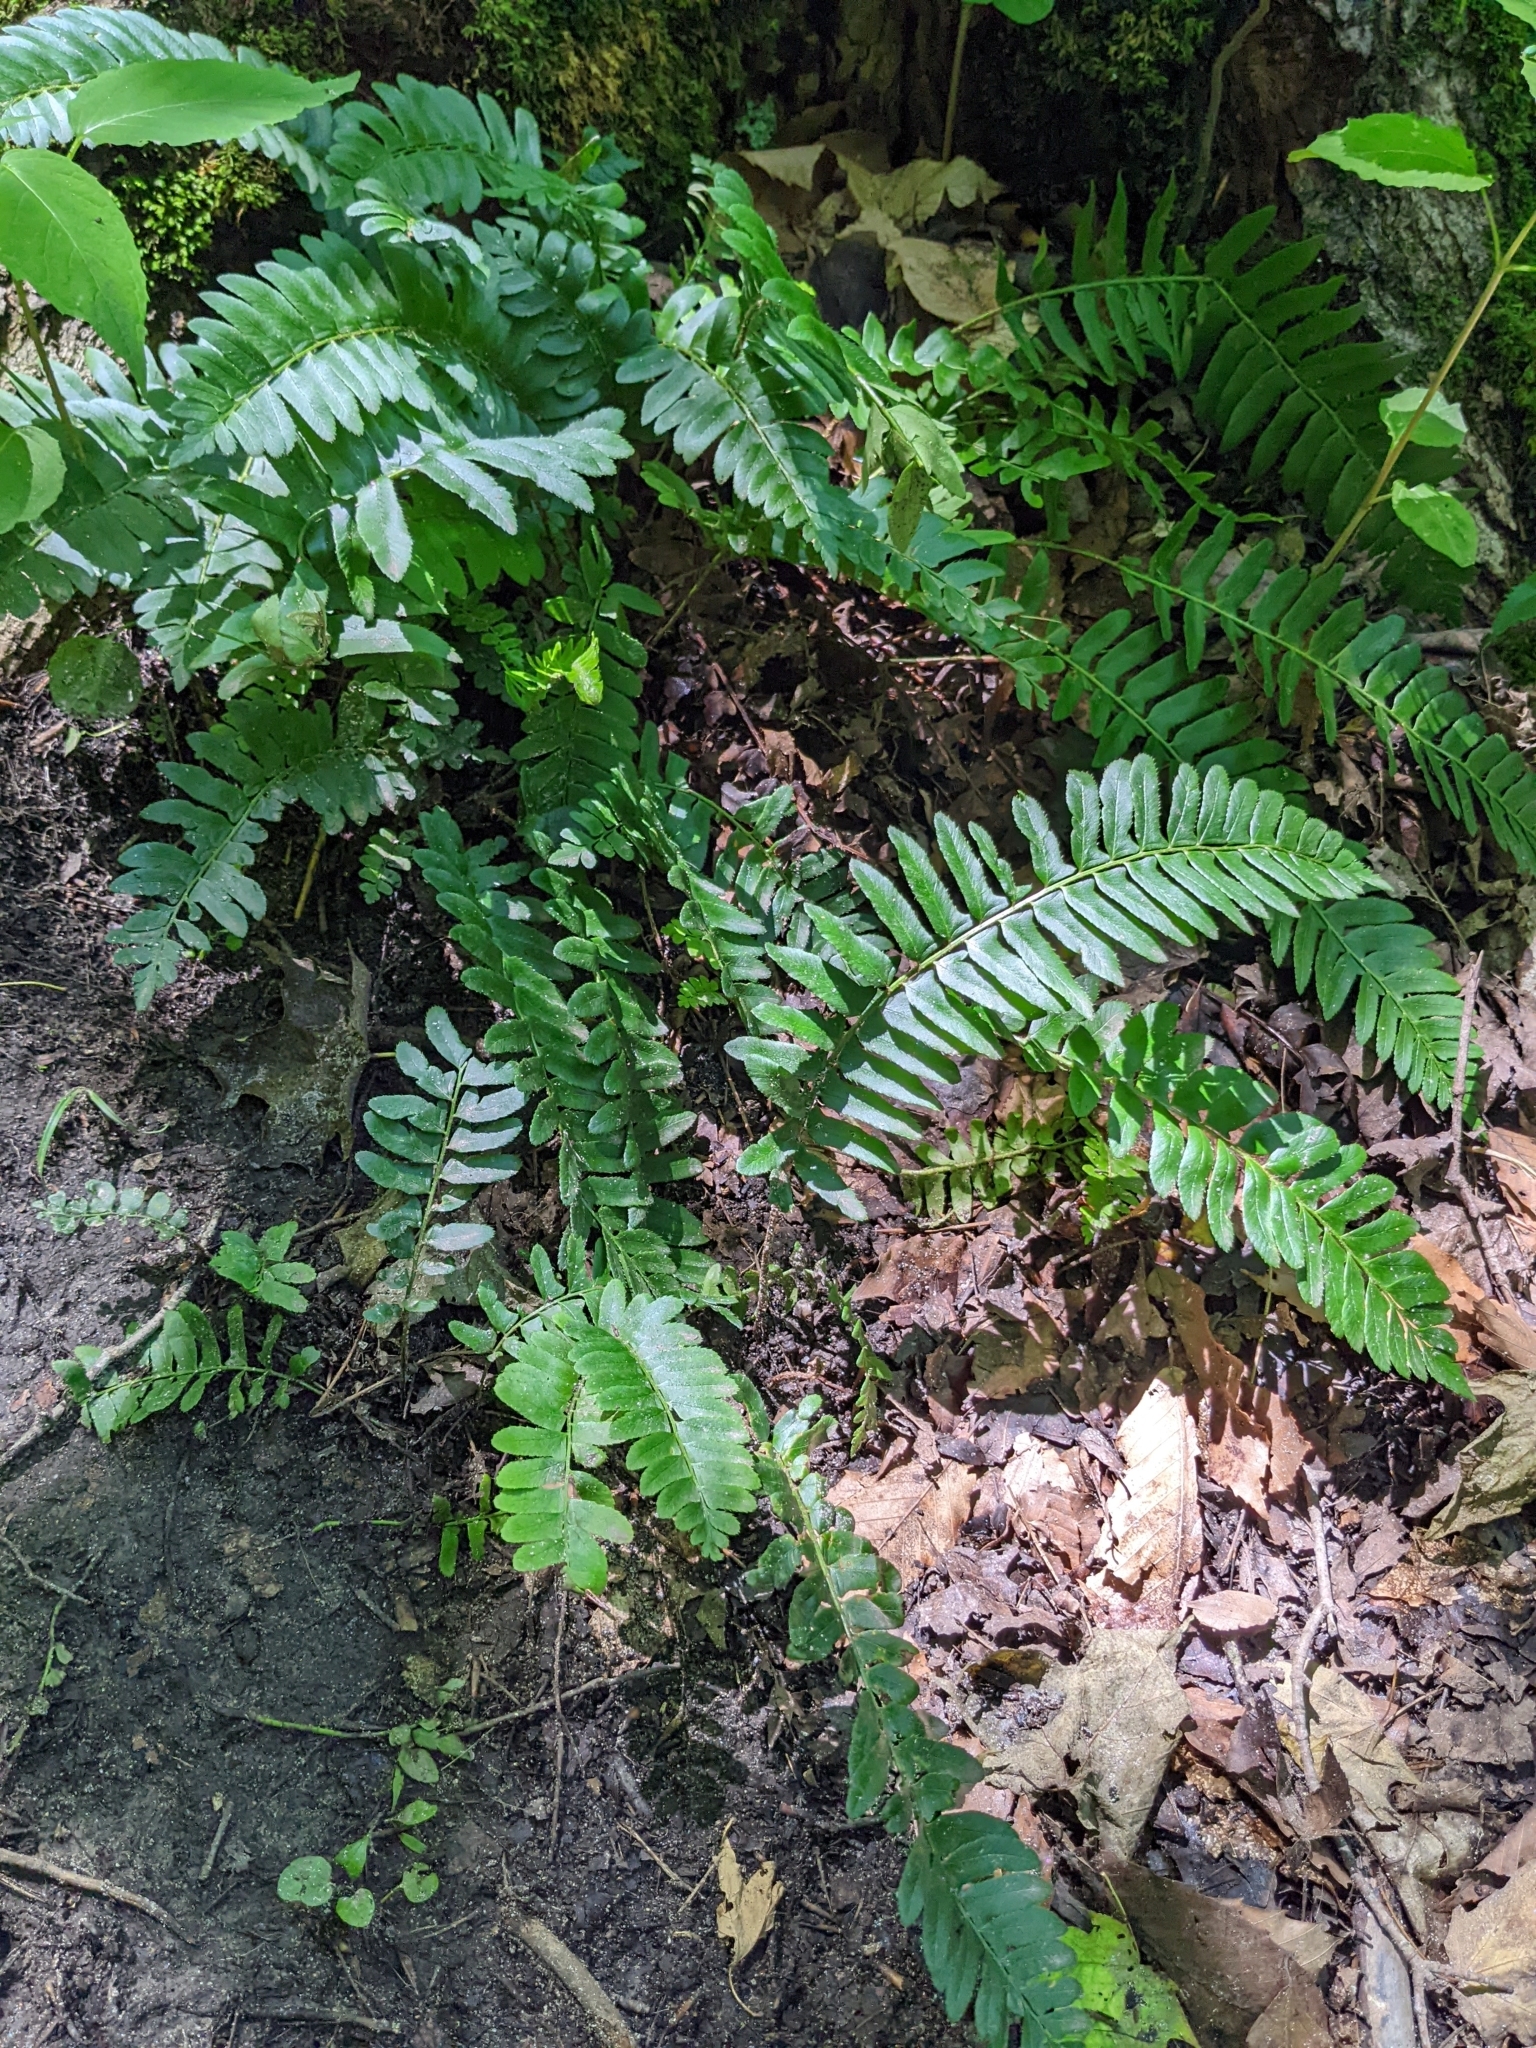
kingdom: Plantae
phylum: Tracheophyta
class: Polypodiopsida
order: Polypodiales
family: Dryopteridaceae
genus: Polystichum
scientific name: Polystichum acrostichoides
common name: Christmas fern
